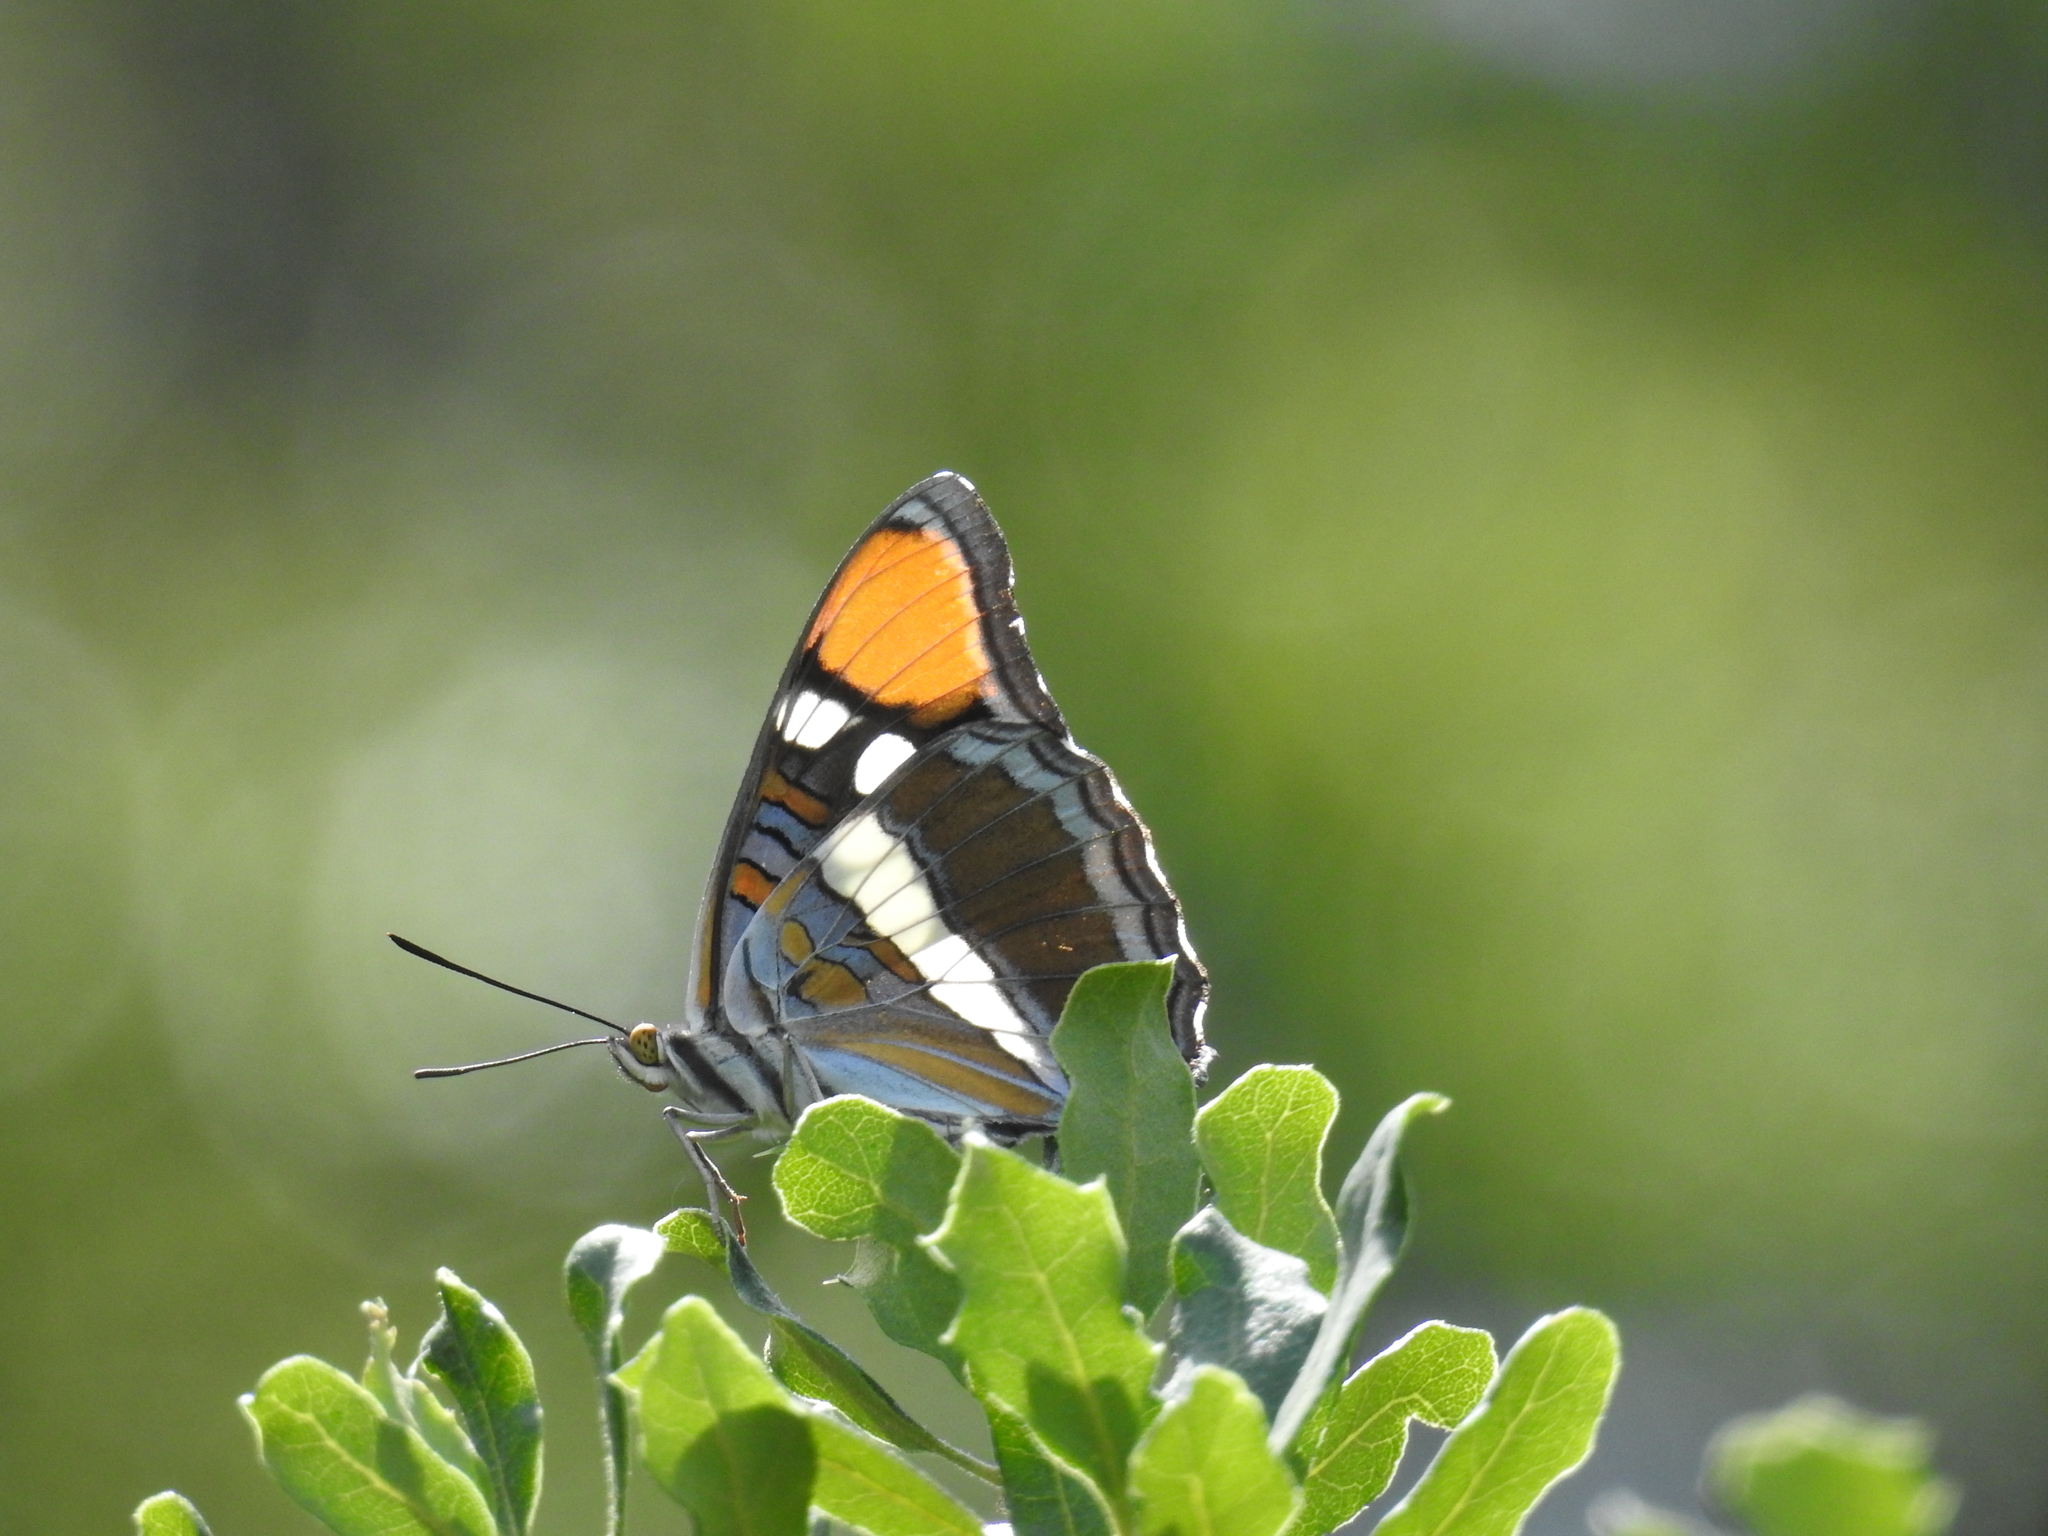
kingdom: Animalia
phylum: Arthropoda
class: Insecta
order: Lepidoptera
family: Nymphalidae
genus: Limenitis
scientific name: Limenitis bredowii
